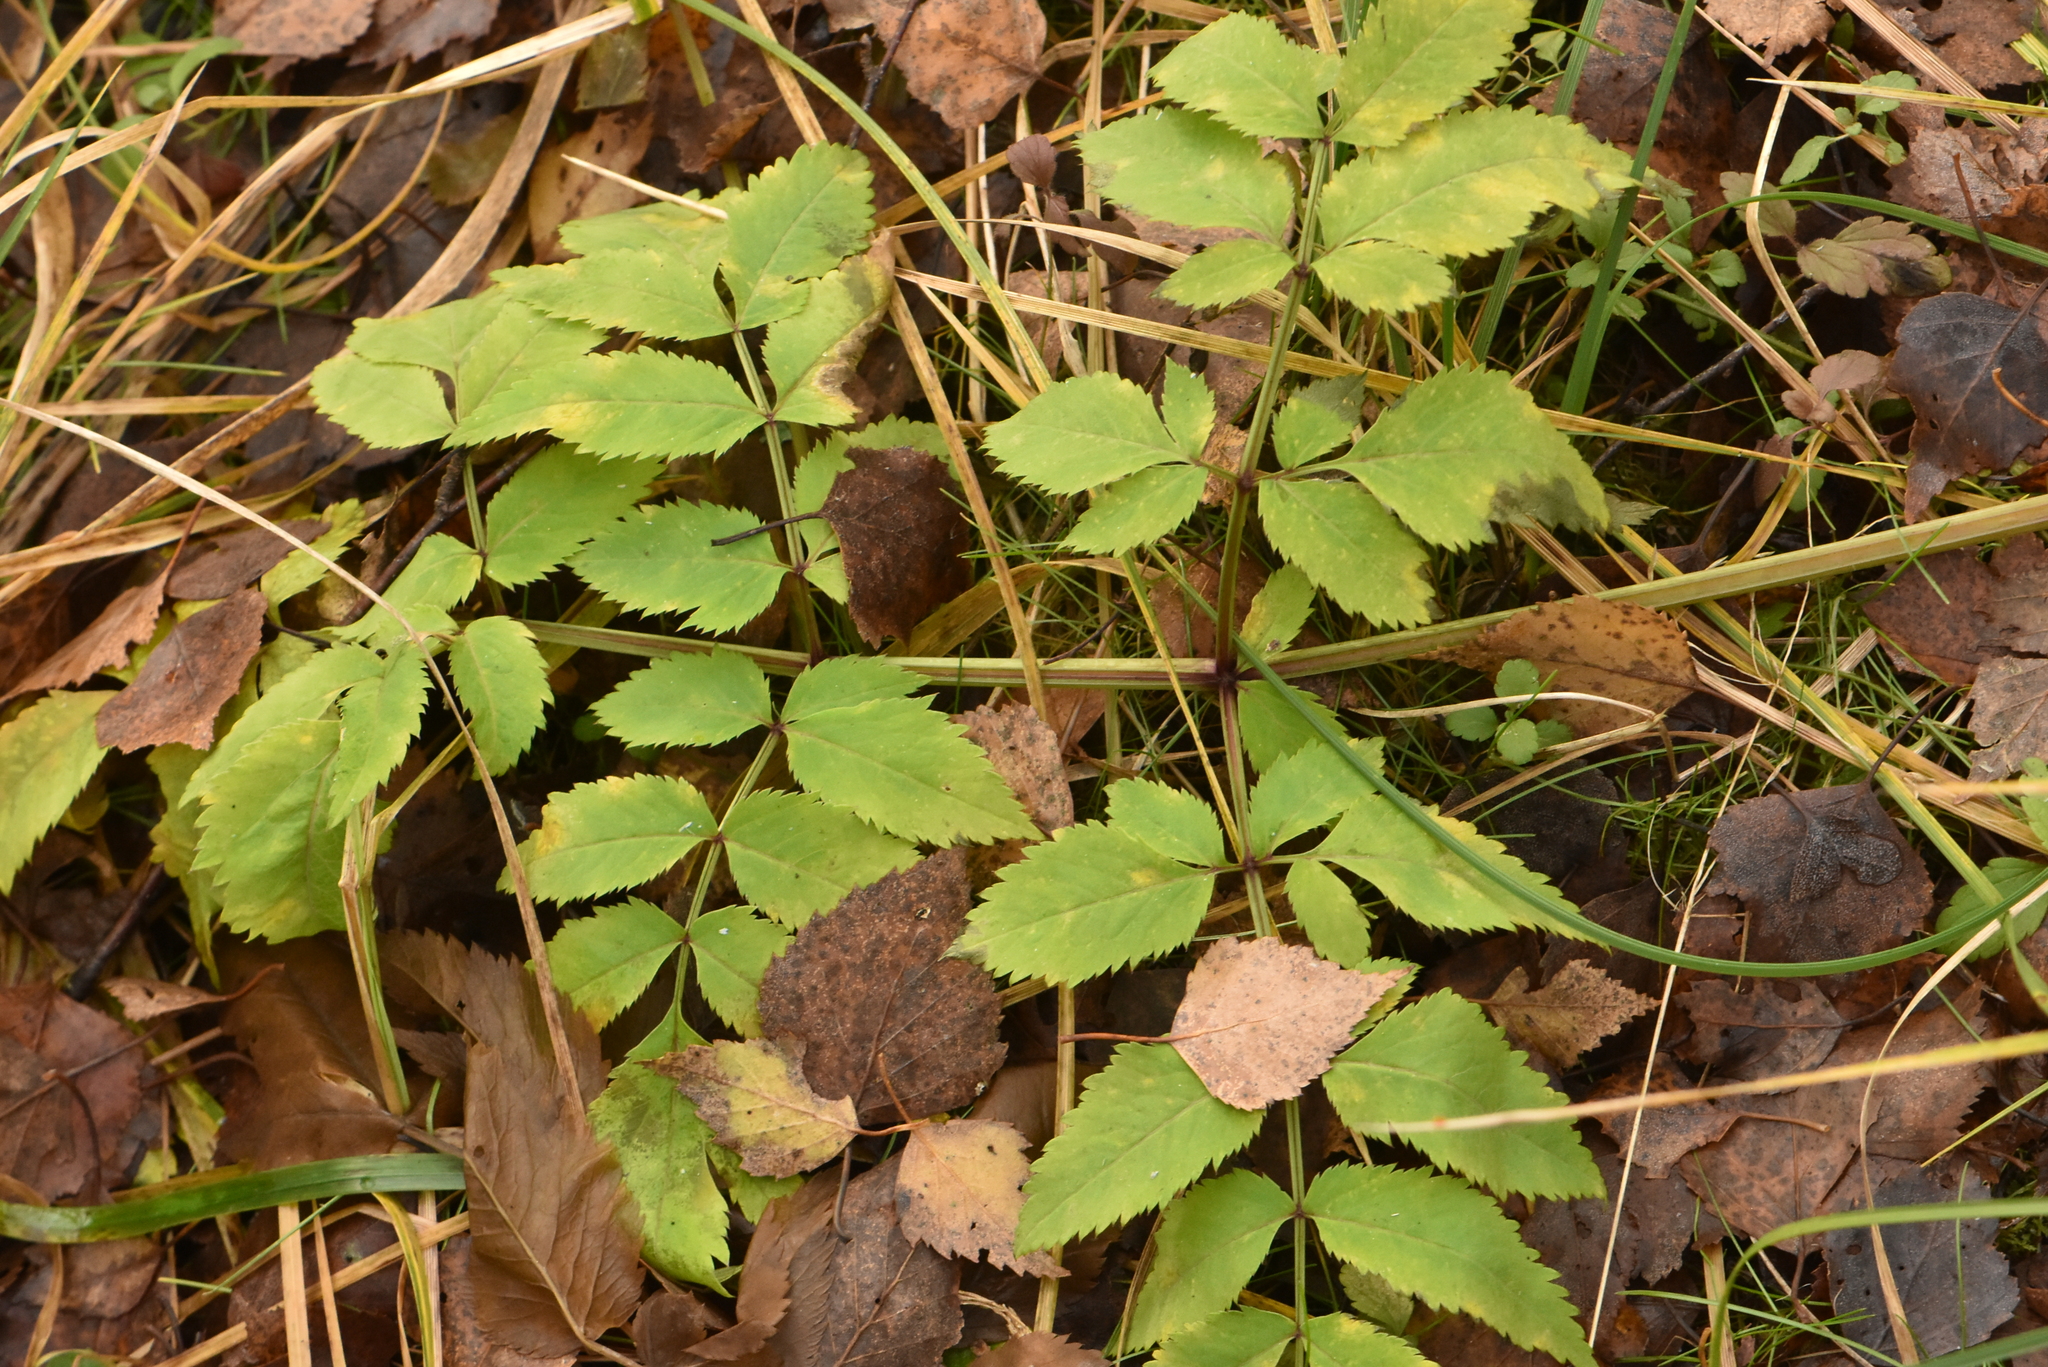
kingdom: Plantae
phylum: Tracheophyta
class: Magnoliopsida
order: Apiales
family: Apiaceae
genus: Angelica
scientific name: Angelica sylvestris
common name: Wild angelica
